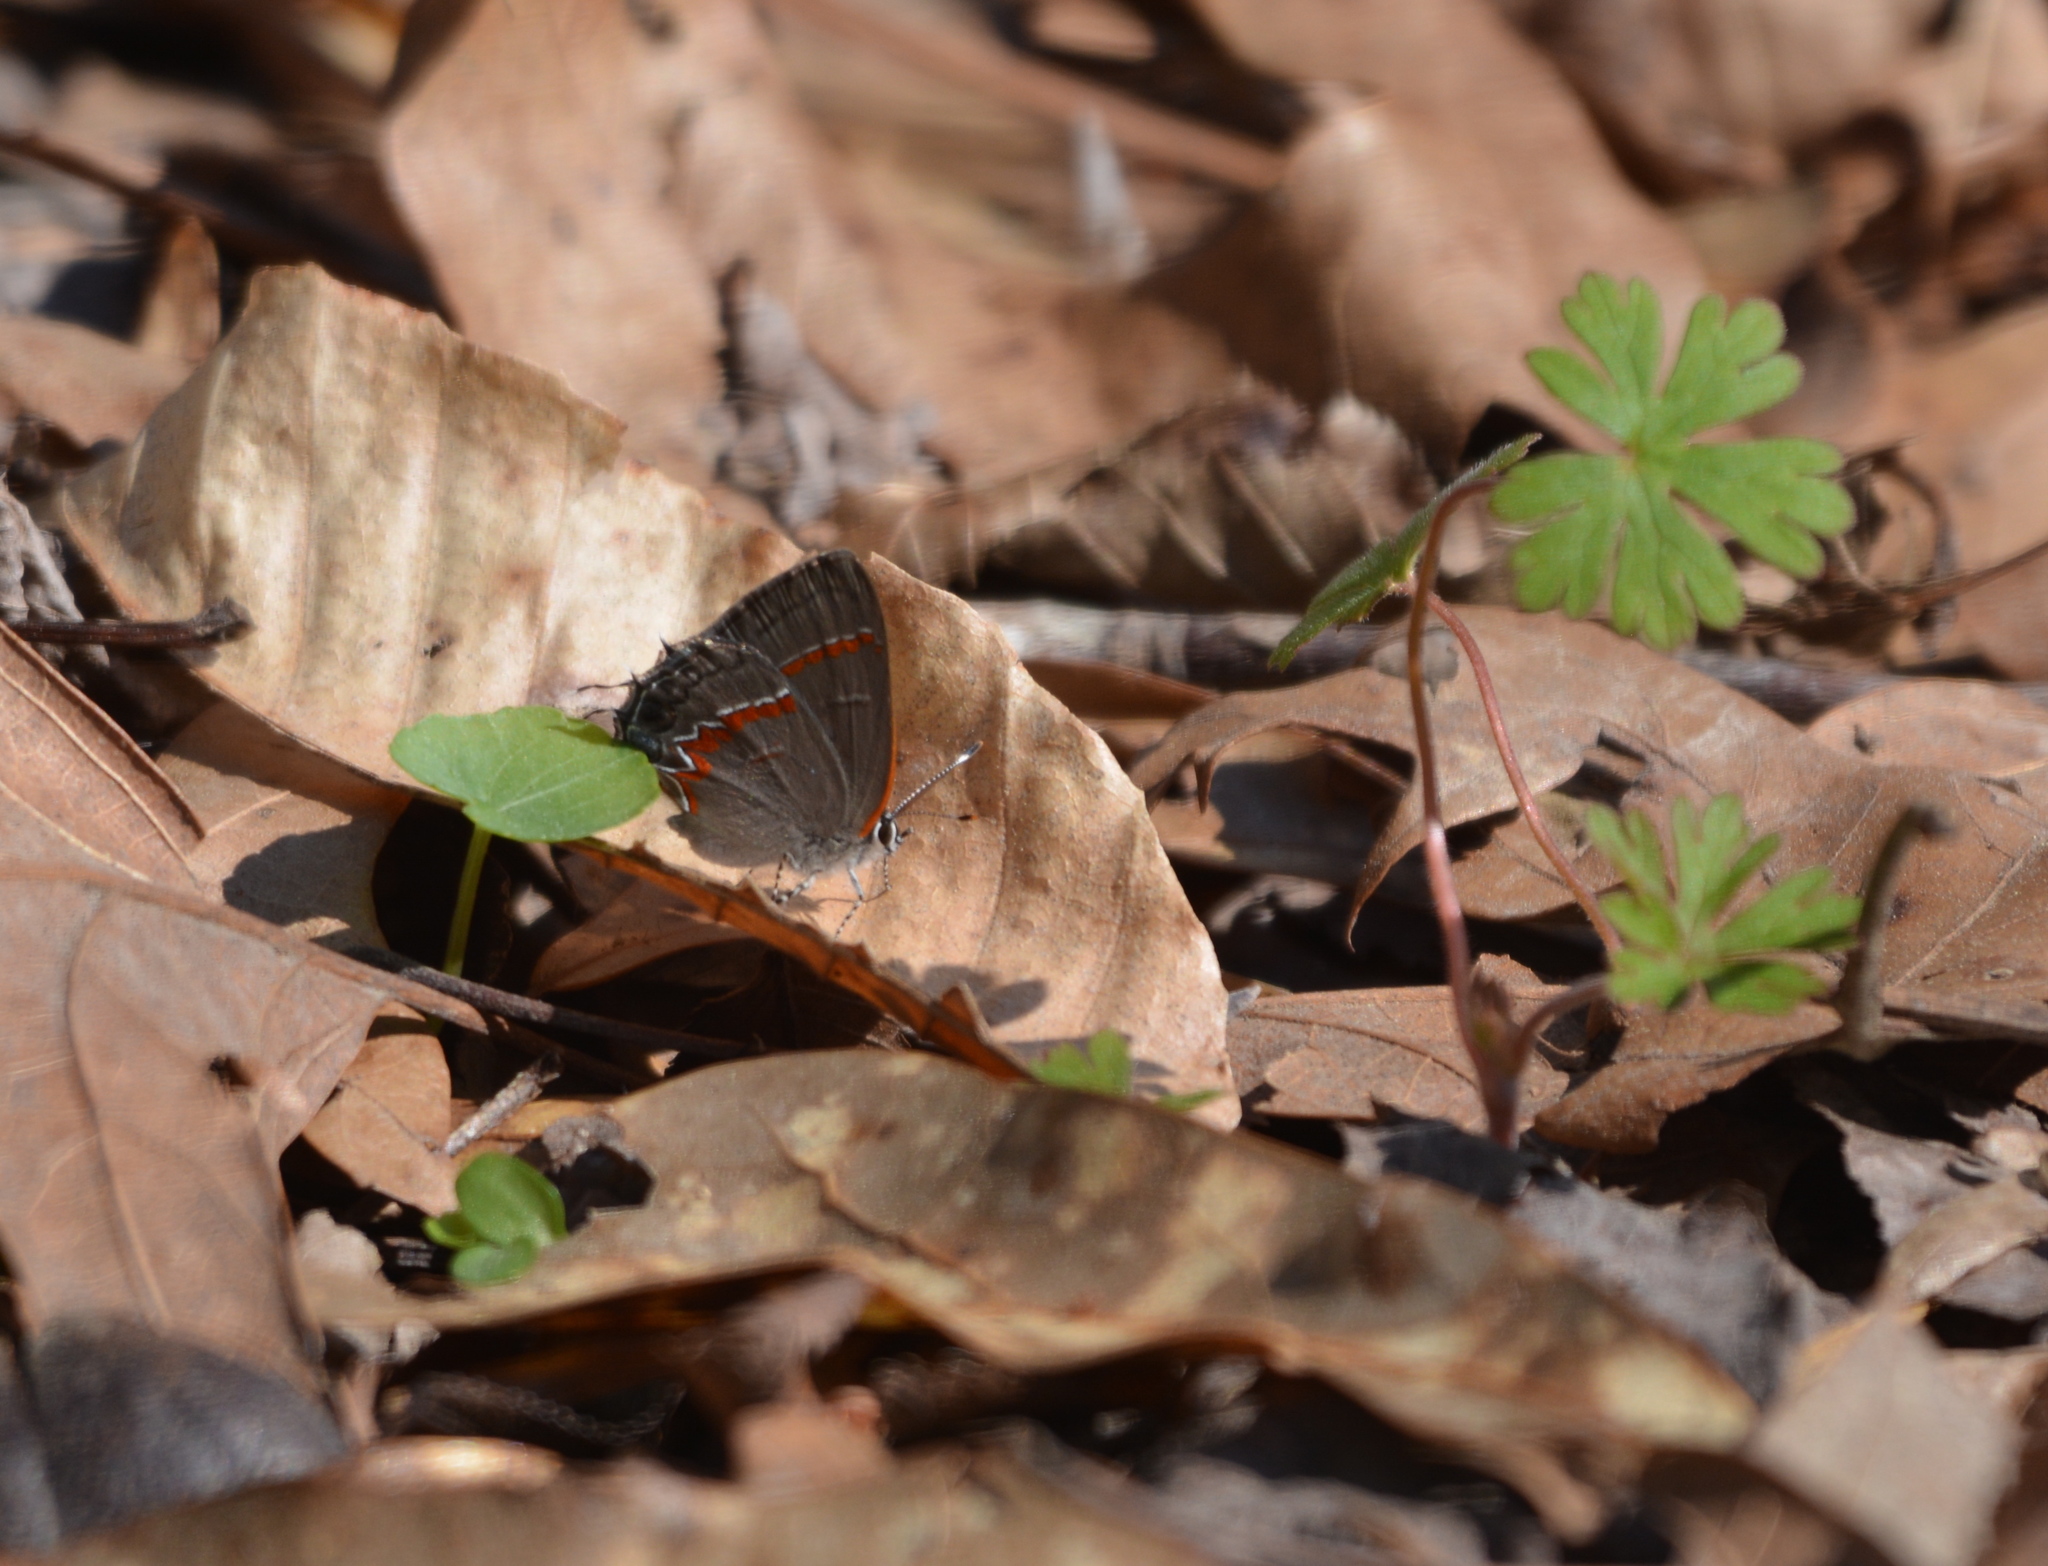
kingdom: Animalia
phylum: Arthropoda
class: Insecta
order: Lepidoptera
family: Lycaenidae
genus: Calycopis
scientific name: Calycopis cecrops
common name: Red-banded hairstreak
